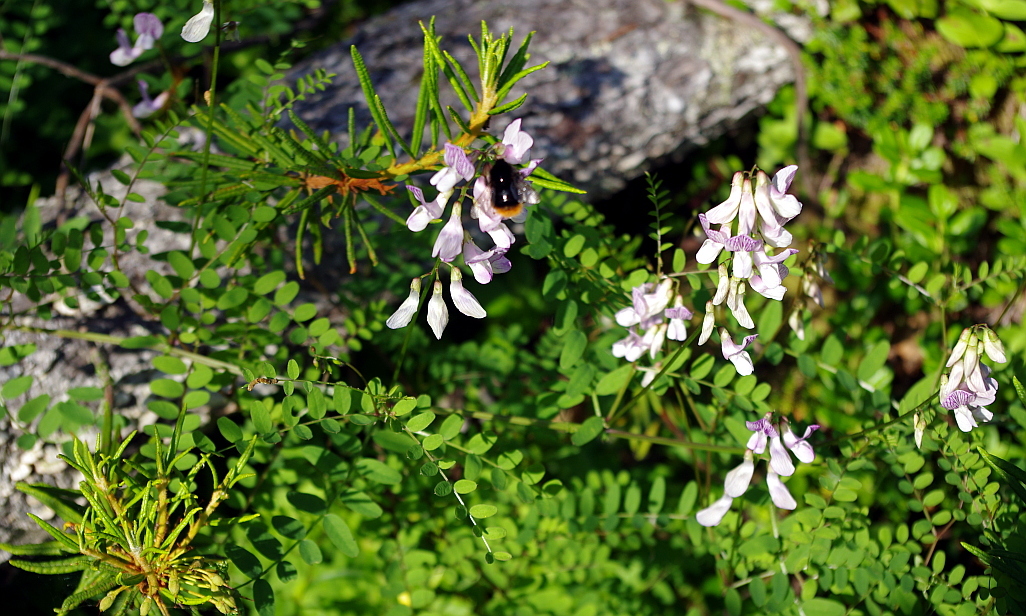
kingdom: Plantae
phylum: Tracheophyta
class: Magnoliopsida
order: Ericales
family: Ericaceae
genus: Rhododendron
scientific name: Rhododendron tomentosum
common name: Marsh labrador tea
